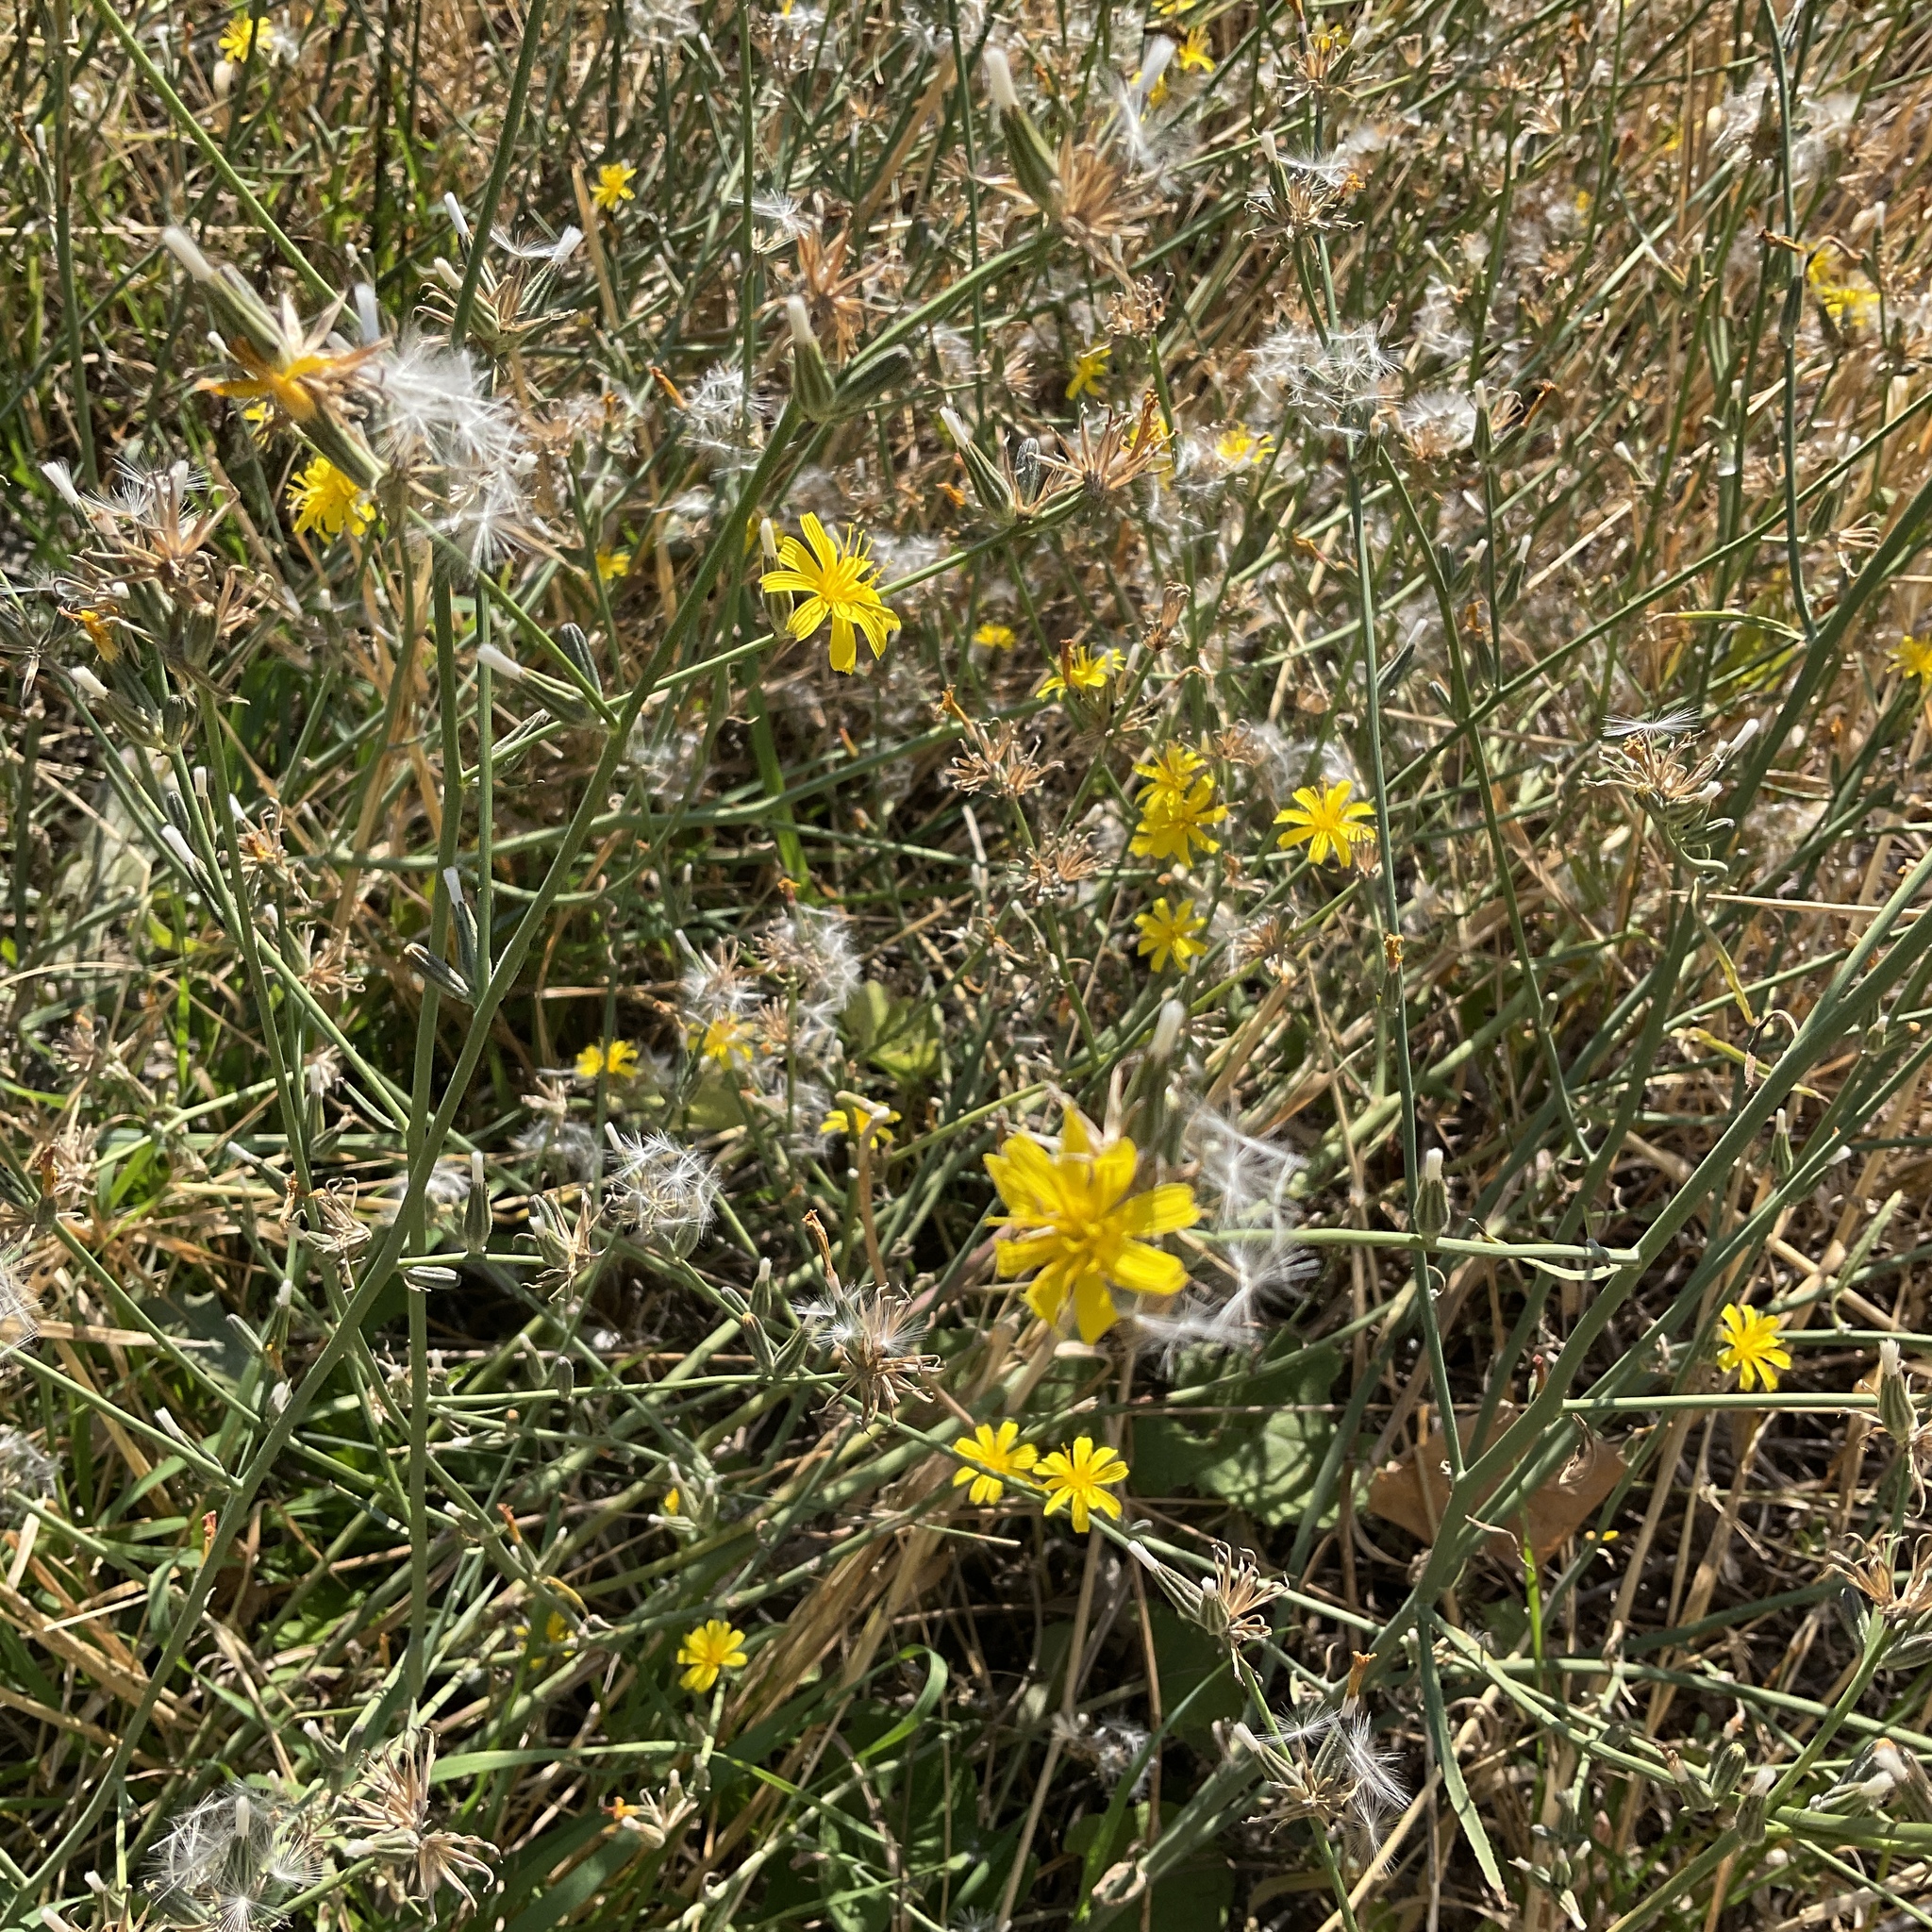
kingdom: Plantae
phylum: Tracheophyta
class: Magnoliopsida
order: Asterales
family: Asteraceae
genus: Chondrilla
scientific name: Chondrilla juncea
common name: Skeleton weed
